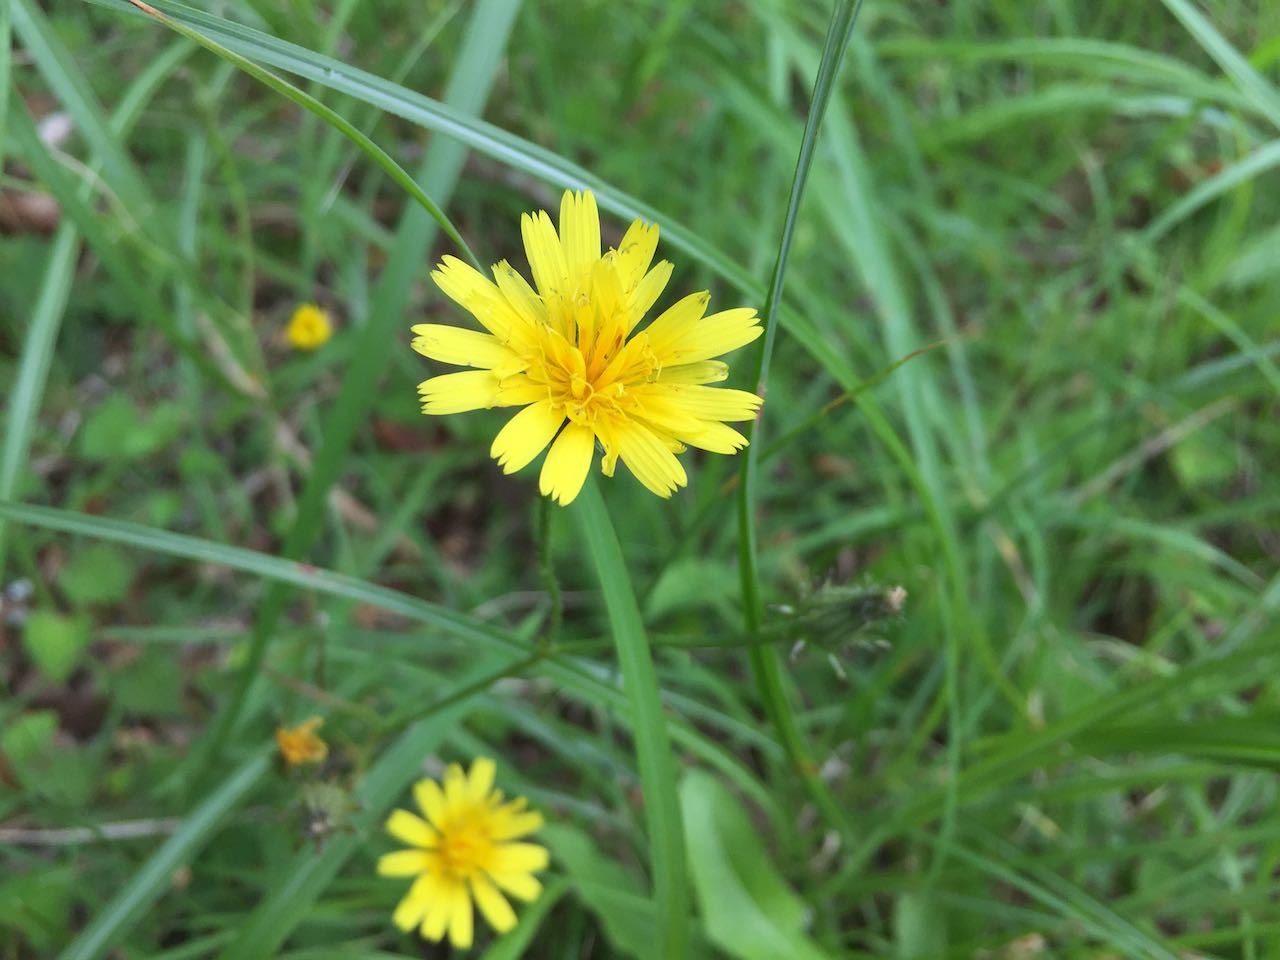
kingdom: Plantae
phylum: Tracheophyta
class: Magnoliopsida
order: Asterales
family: Asteraceae
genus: Hypochaeris
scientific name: Hypochaeris radicata
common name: Flatweed
